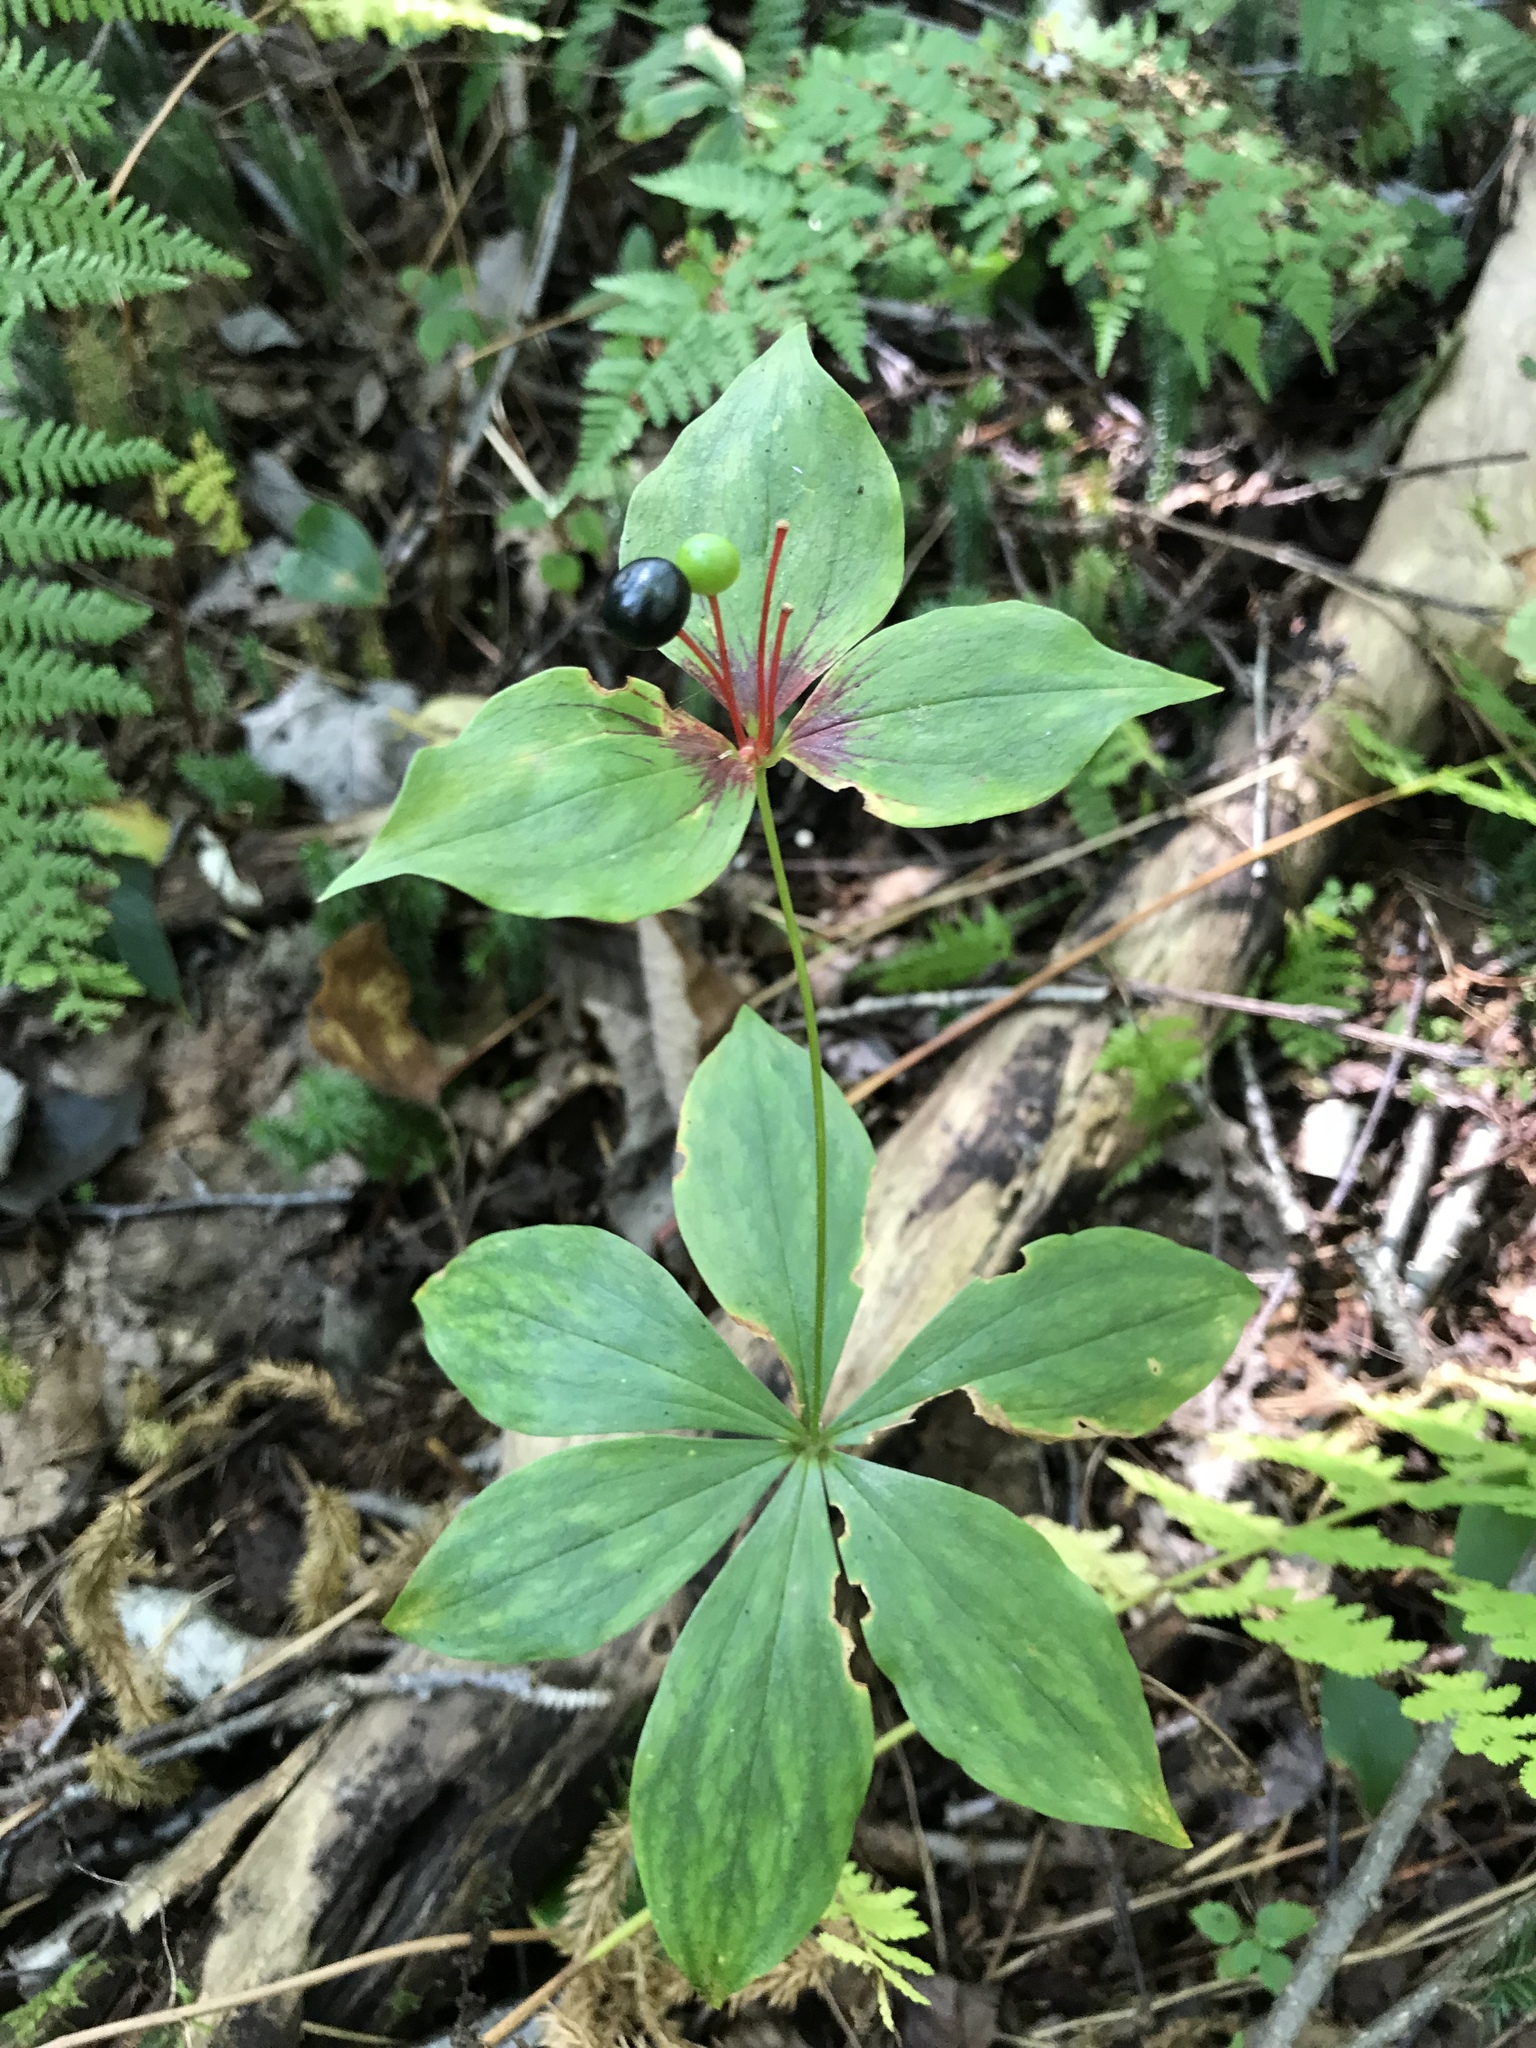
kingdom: Plantae
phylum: Tracheophyta
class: Liliopsida
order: Liliales
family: Liliaceae
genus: Medeola
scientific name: Medeola virginiana
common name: Indian cucumber-root
